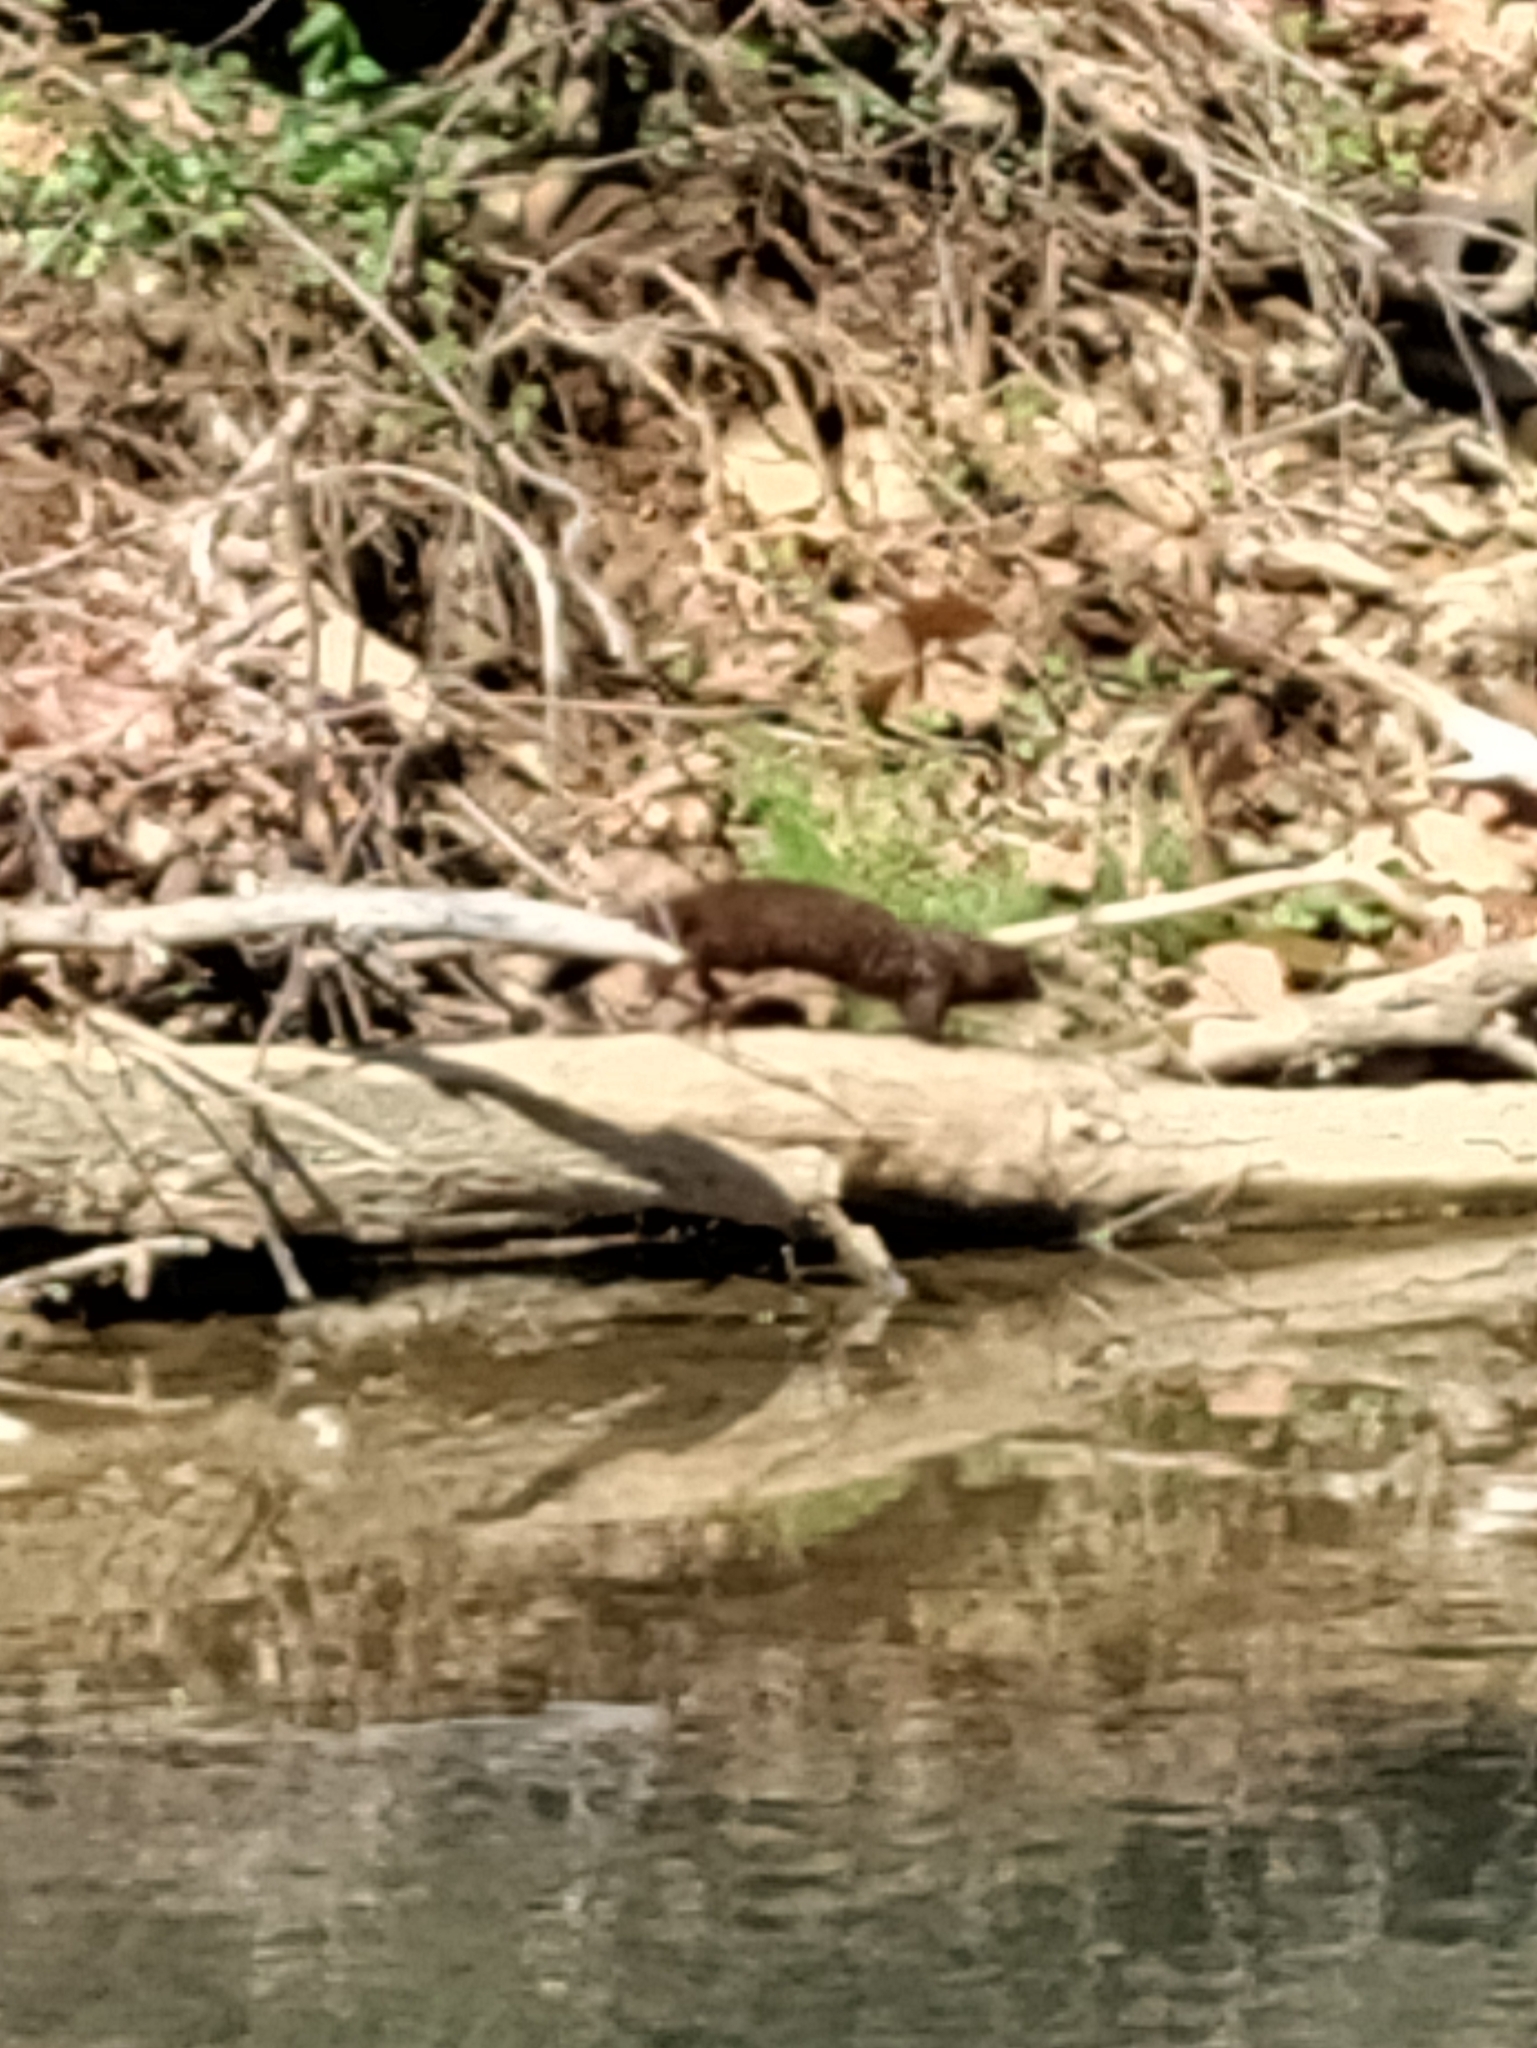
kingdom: Animalia
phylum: Chordata
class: Mammalia
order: Carnivora
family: Mustelidae
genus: Mustela
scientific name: Mustela
